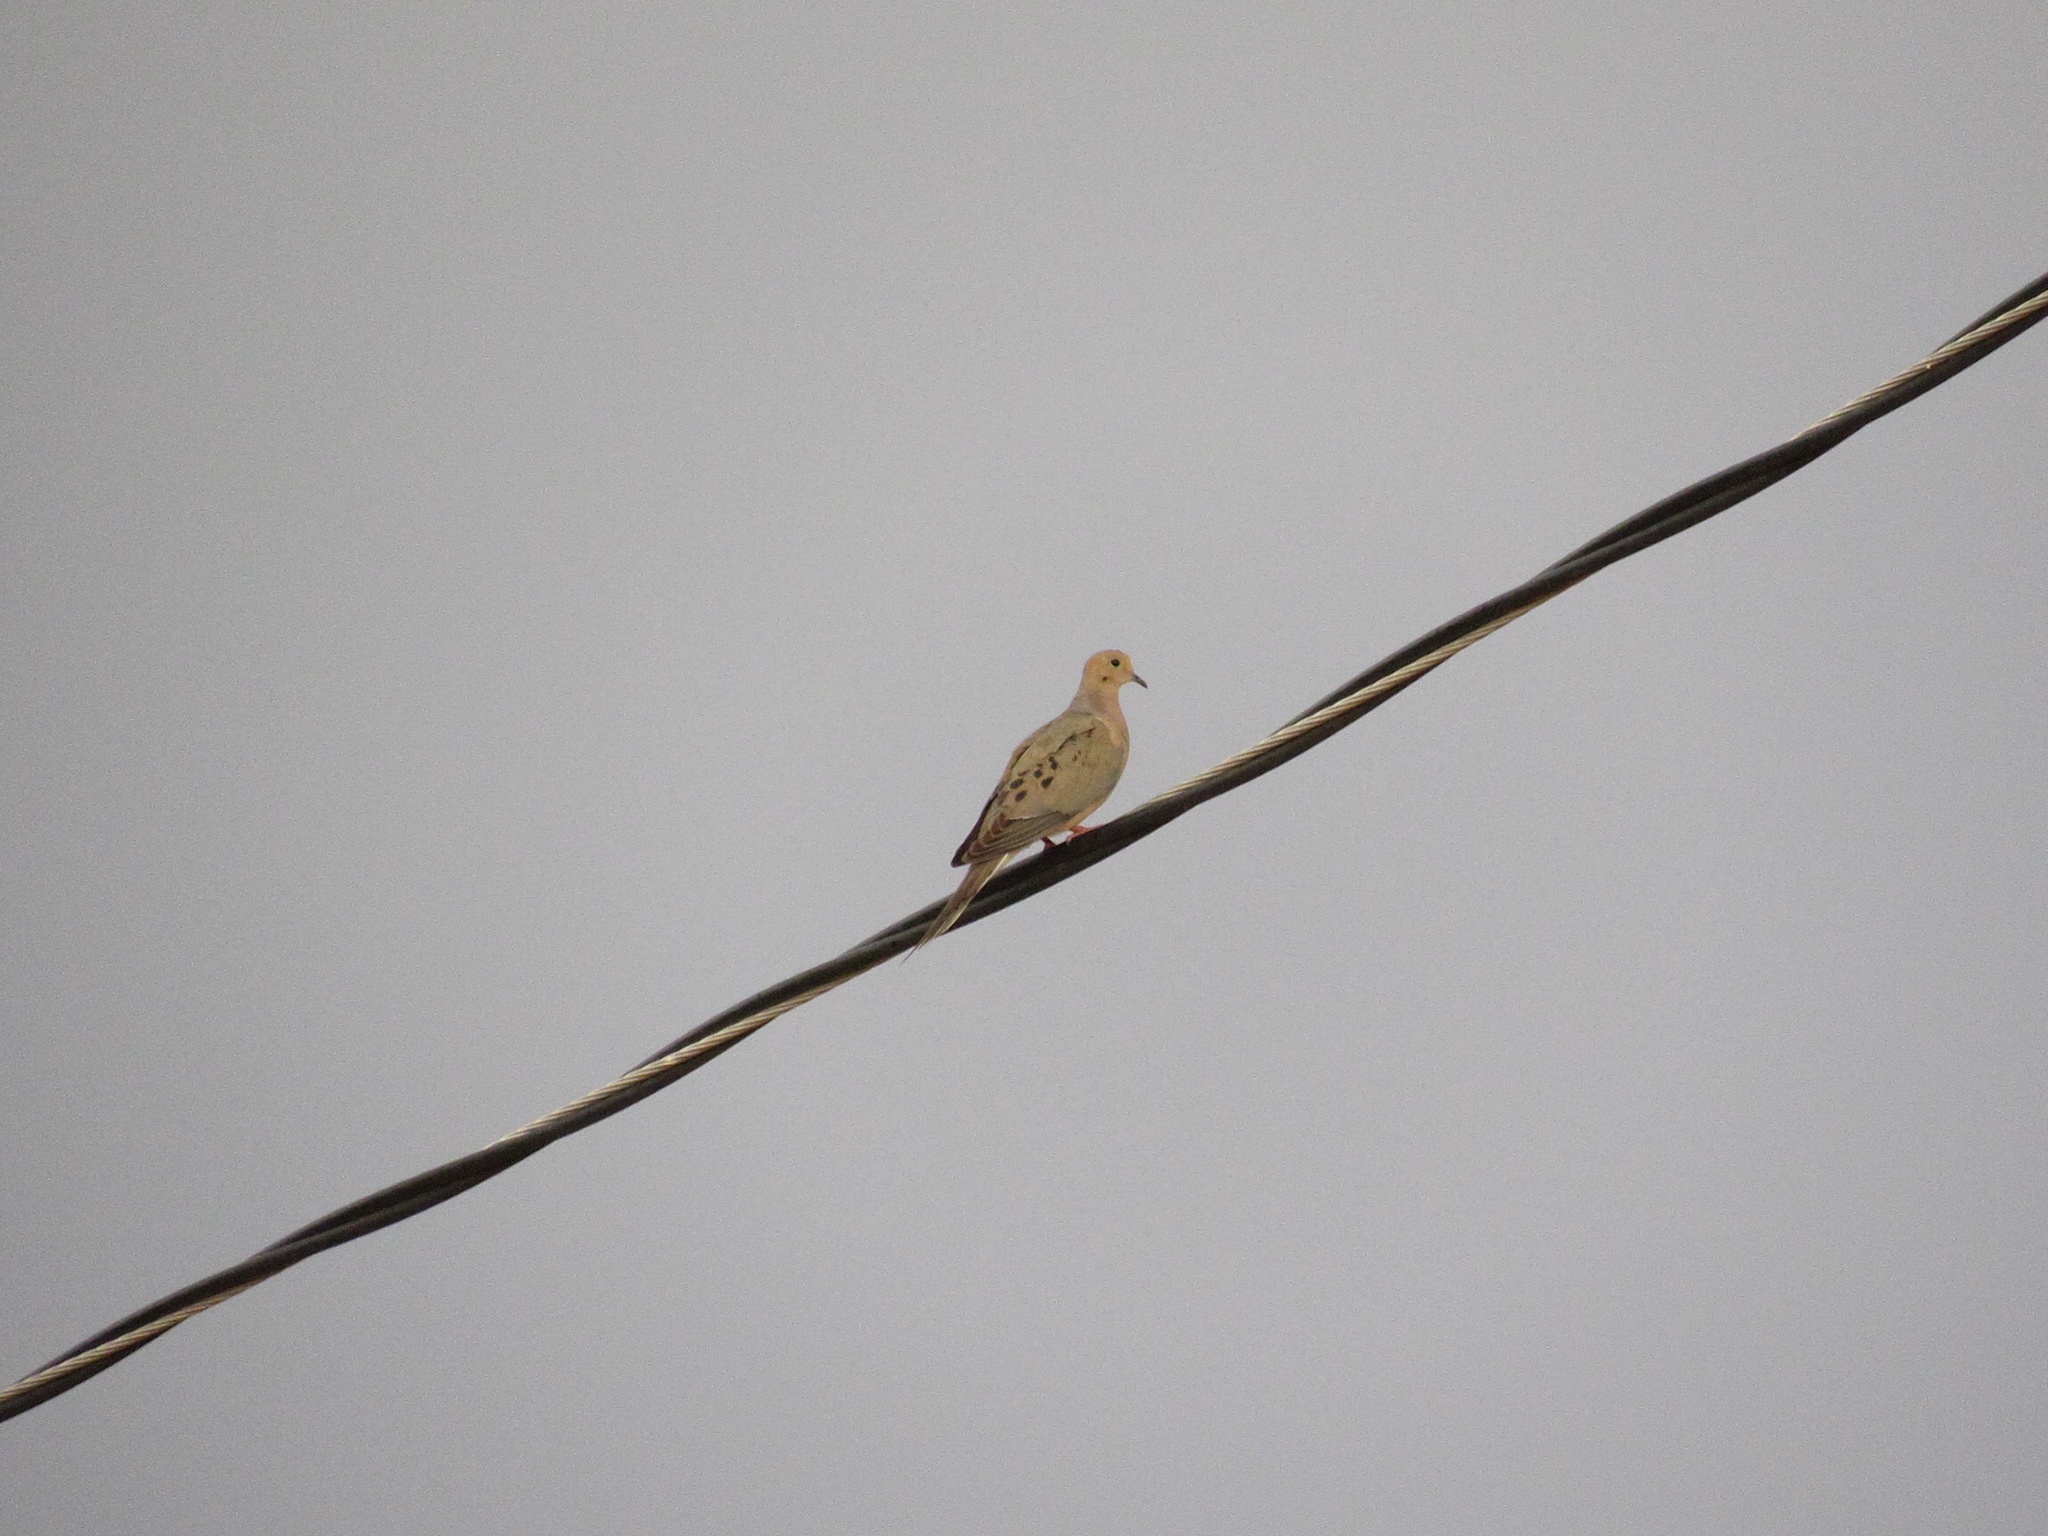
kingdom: Animalia
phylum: Chordata
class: Aves
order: Columbiformes
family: Columbidae
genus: Zenaida
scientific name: Zenaida macroura
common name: Mourning dove
